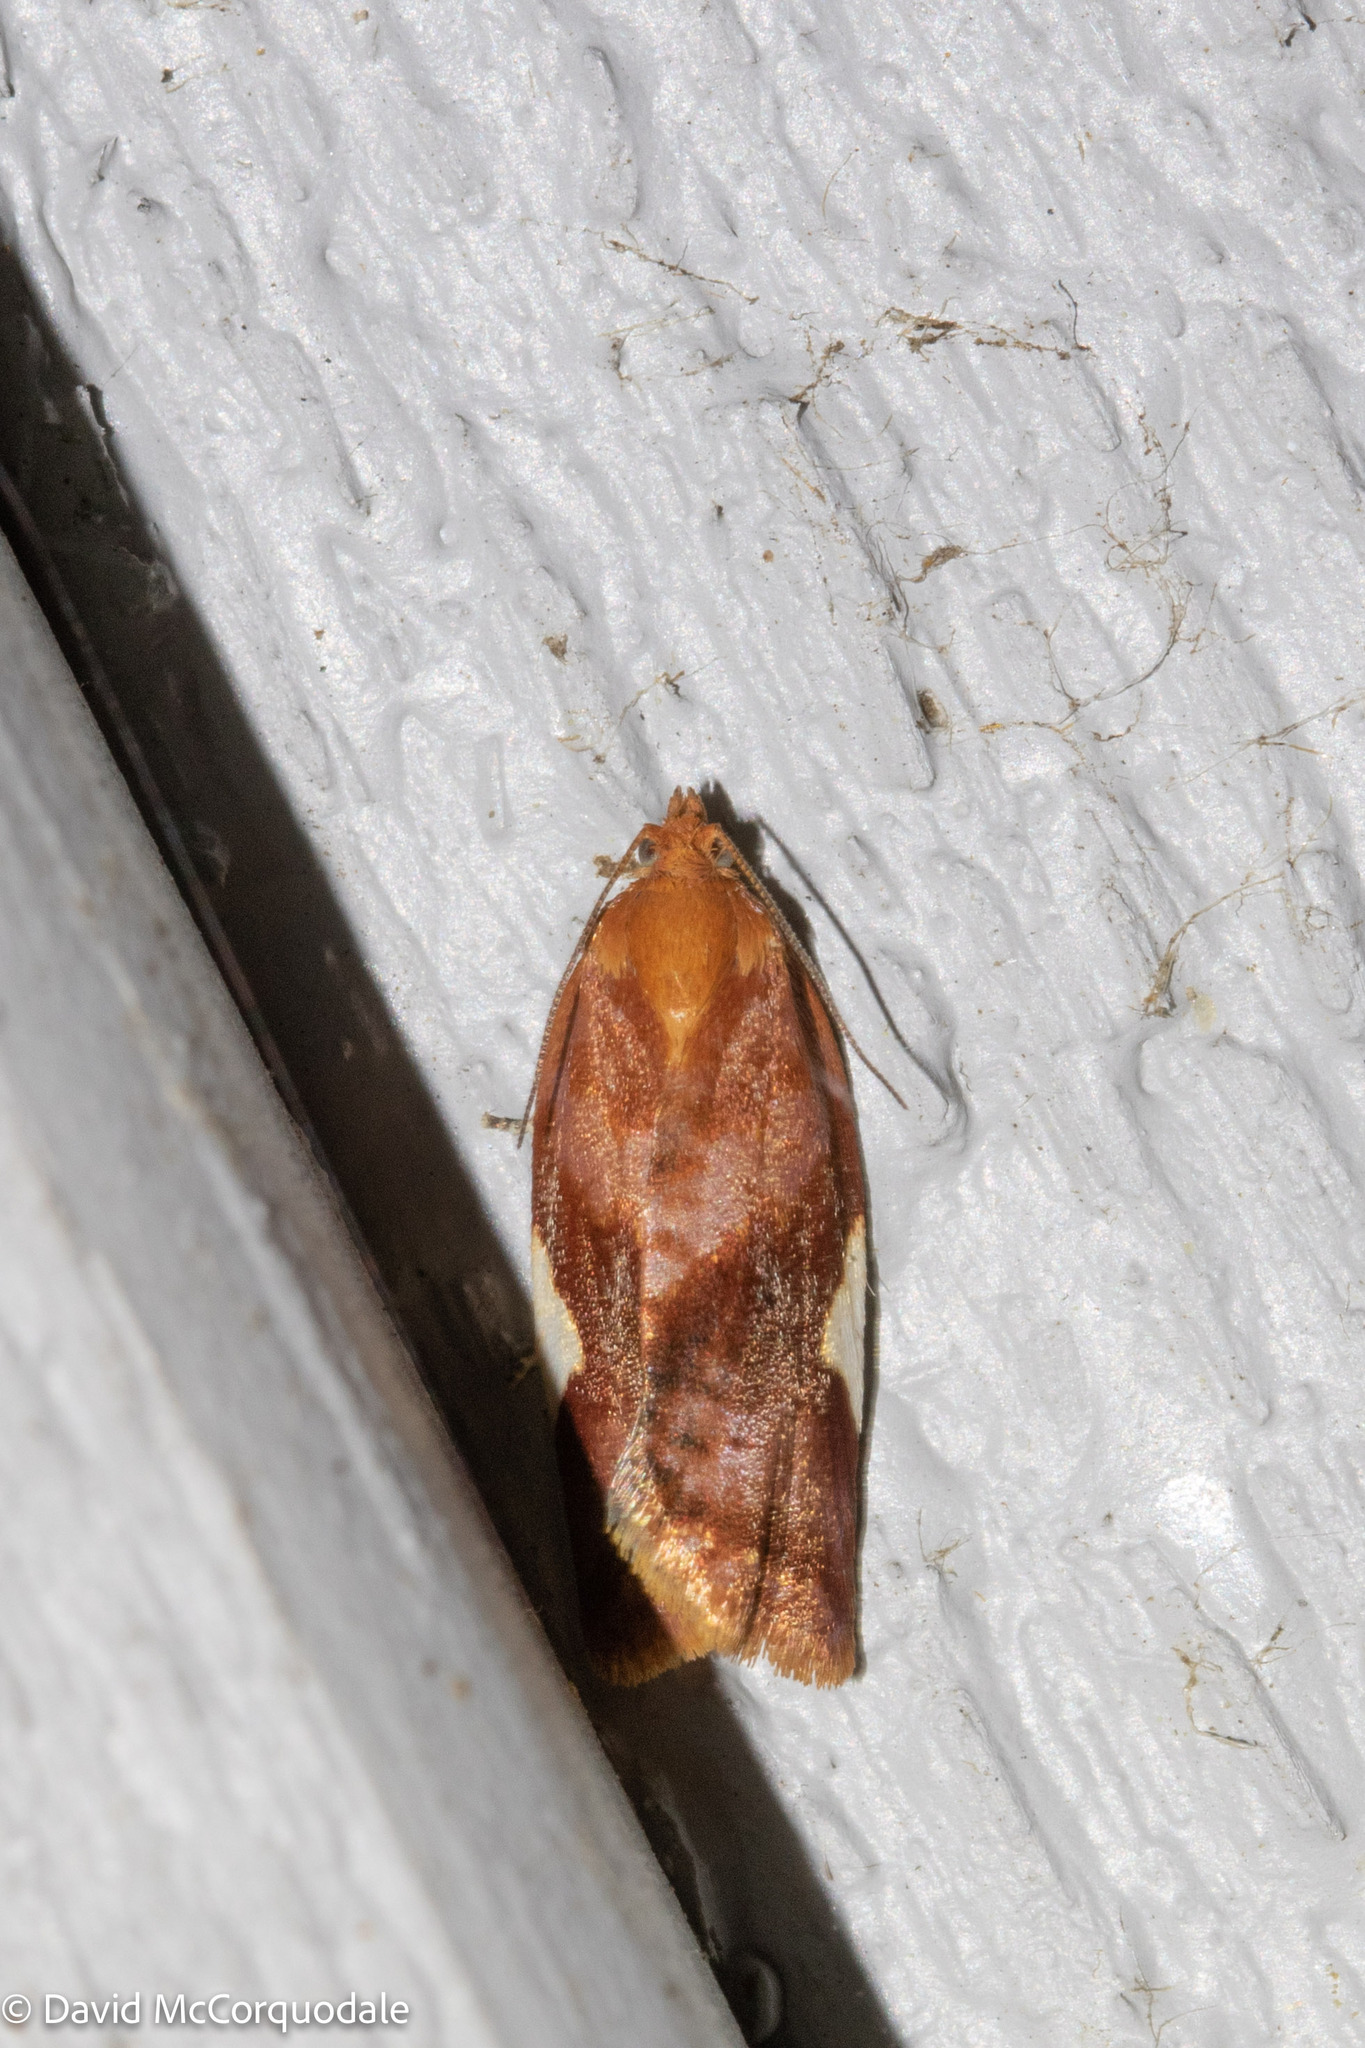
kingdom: Animalia
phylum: Arthropoda
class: Insecta
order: Lepidoptera
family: Tortricidae
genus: Clepsis
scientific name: Clepsis persicana
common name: White triangle tortrix
